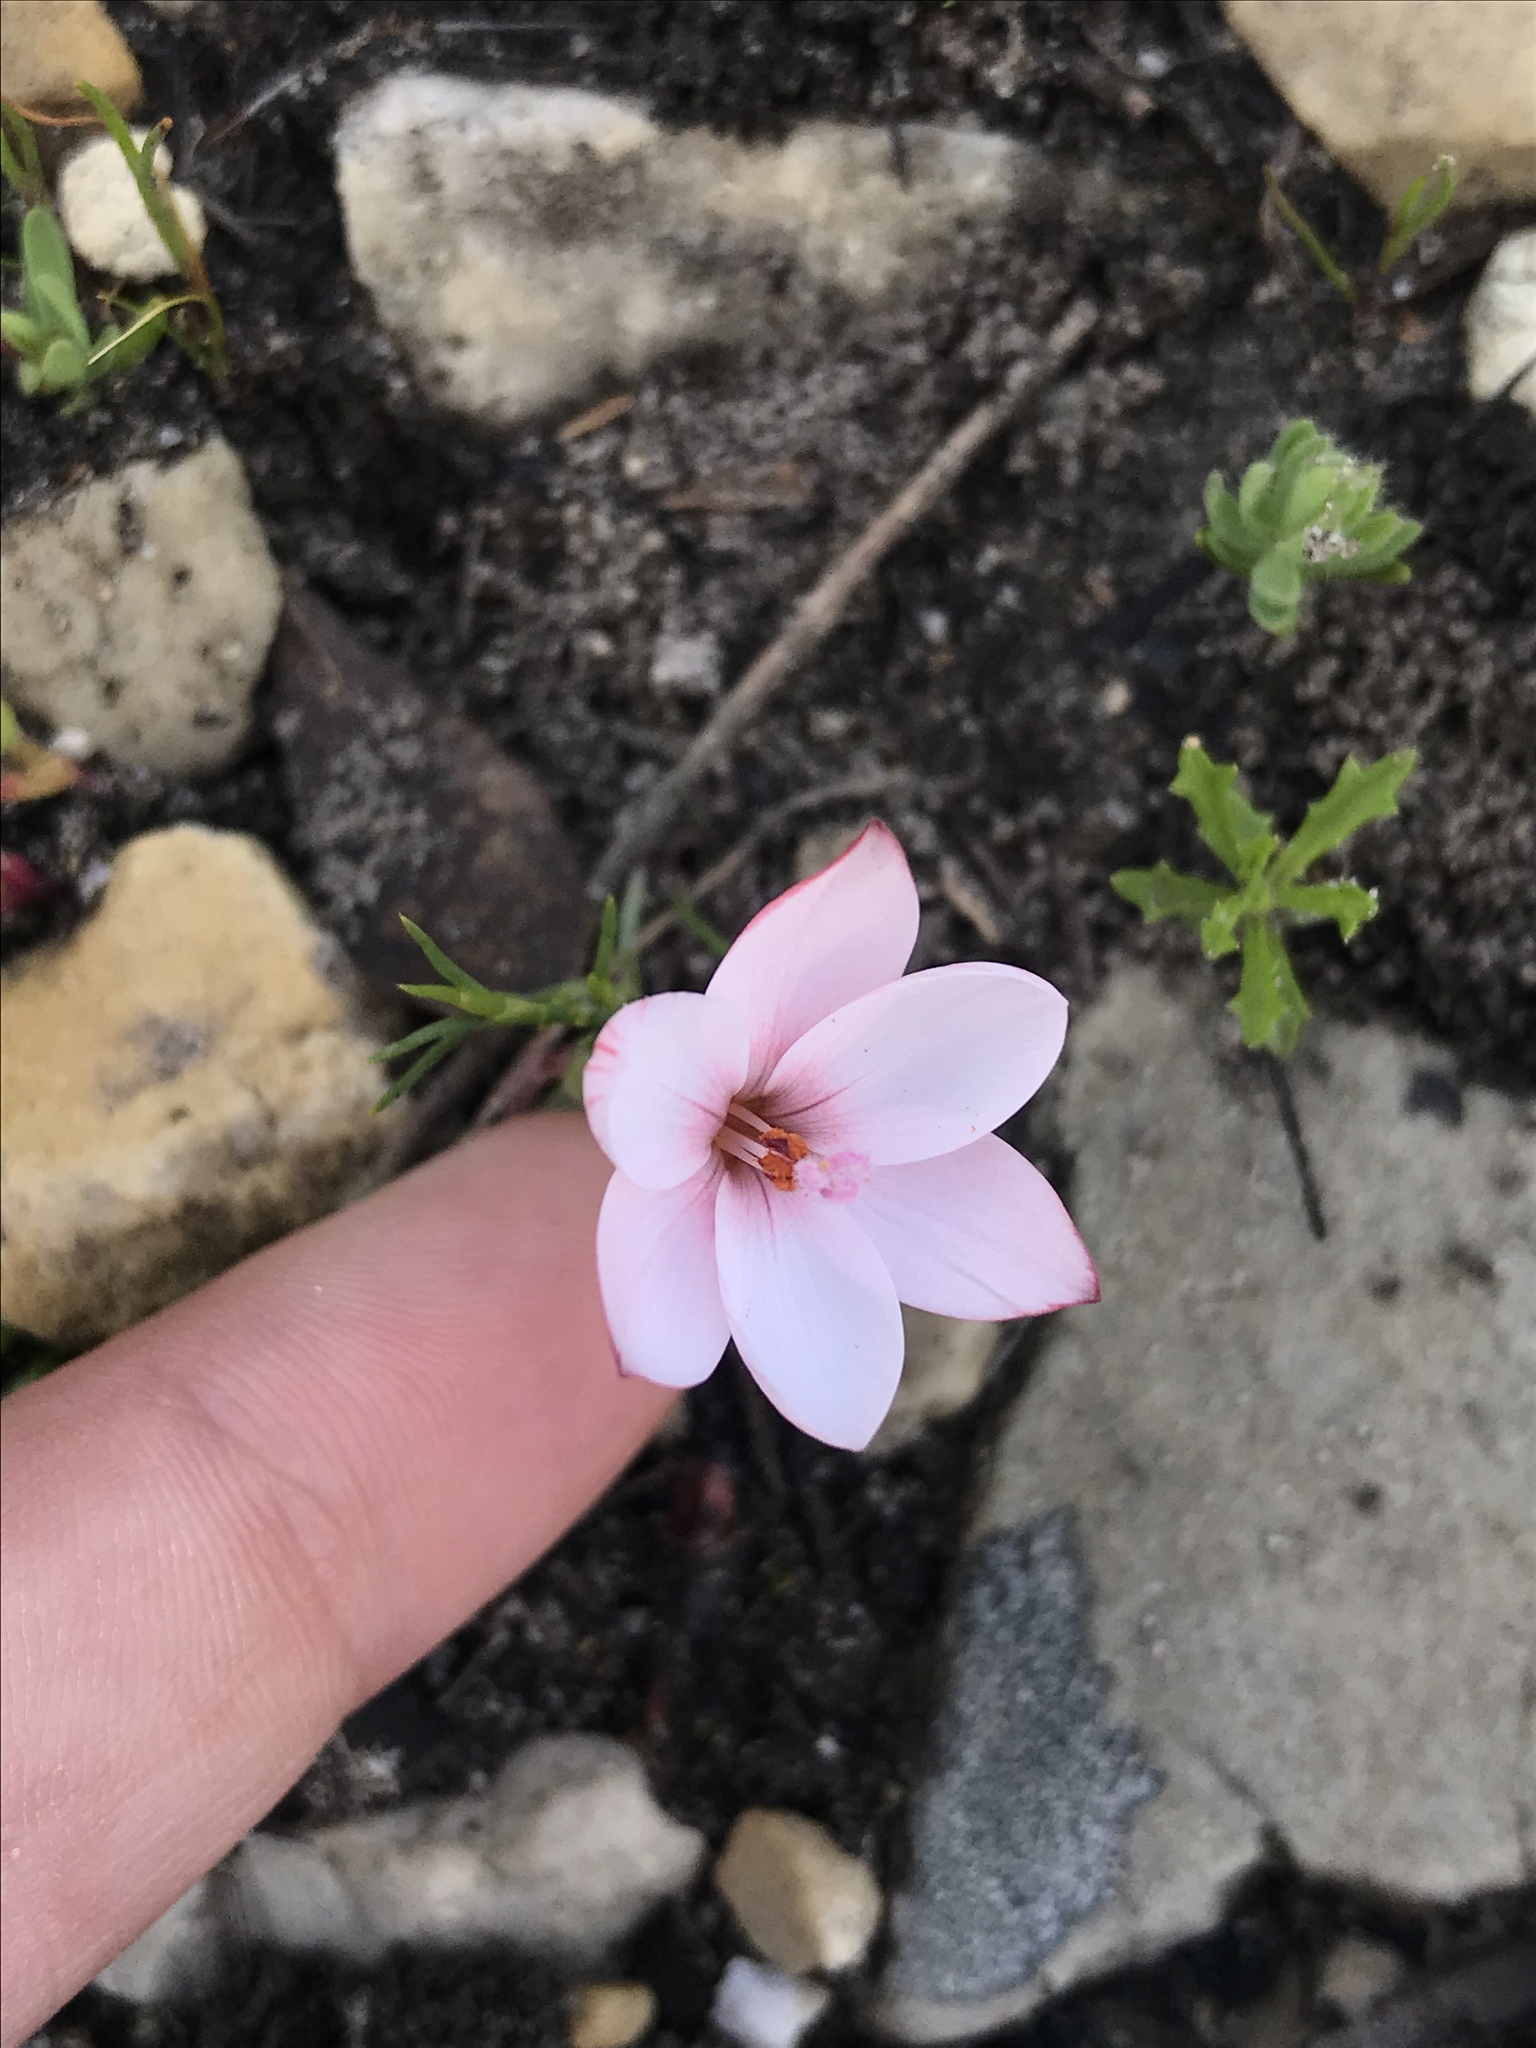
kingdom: Plantae
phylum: Tracheophyta
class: Liliopsida
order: Asparagales
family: Iridaceae
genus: Geissorhiza
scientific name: Geissorhiza ovata
